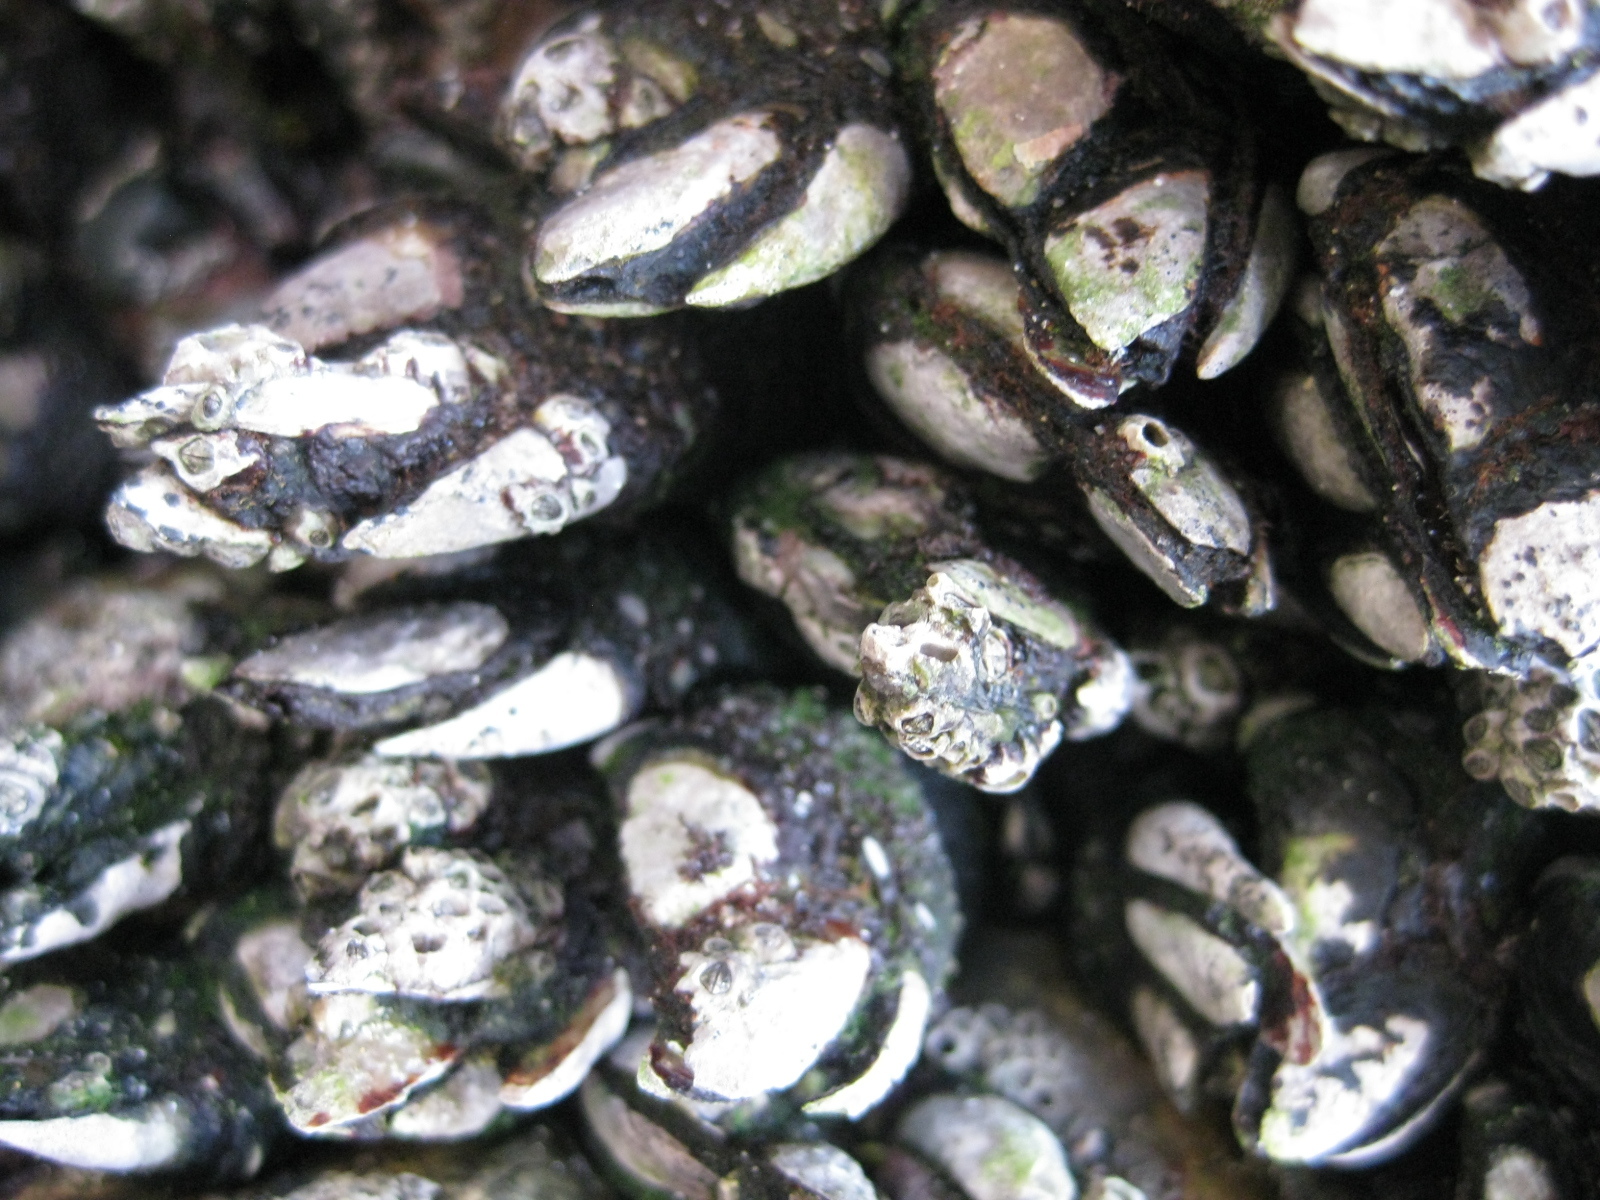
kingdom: Animalia
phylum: Arthropoda
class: Maxillopoda
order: Pedunculata
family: Calanticidae
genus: Calantica
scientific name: Calantica spinosa
